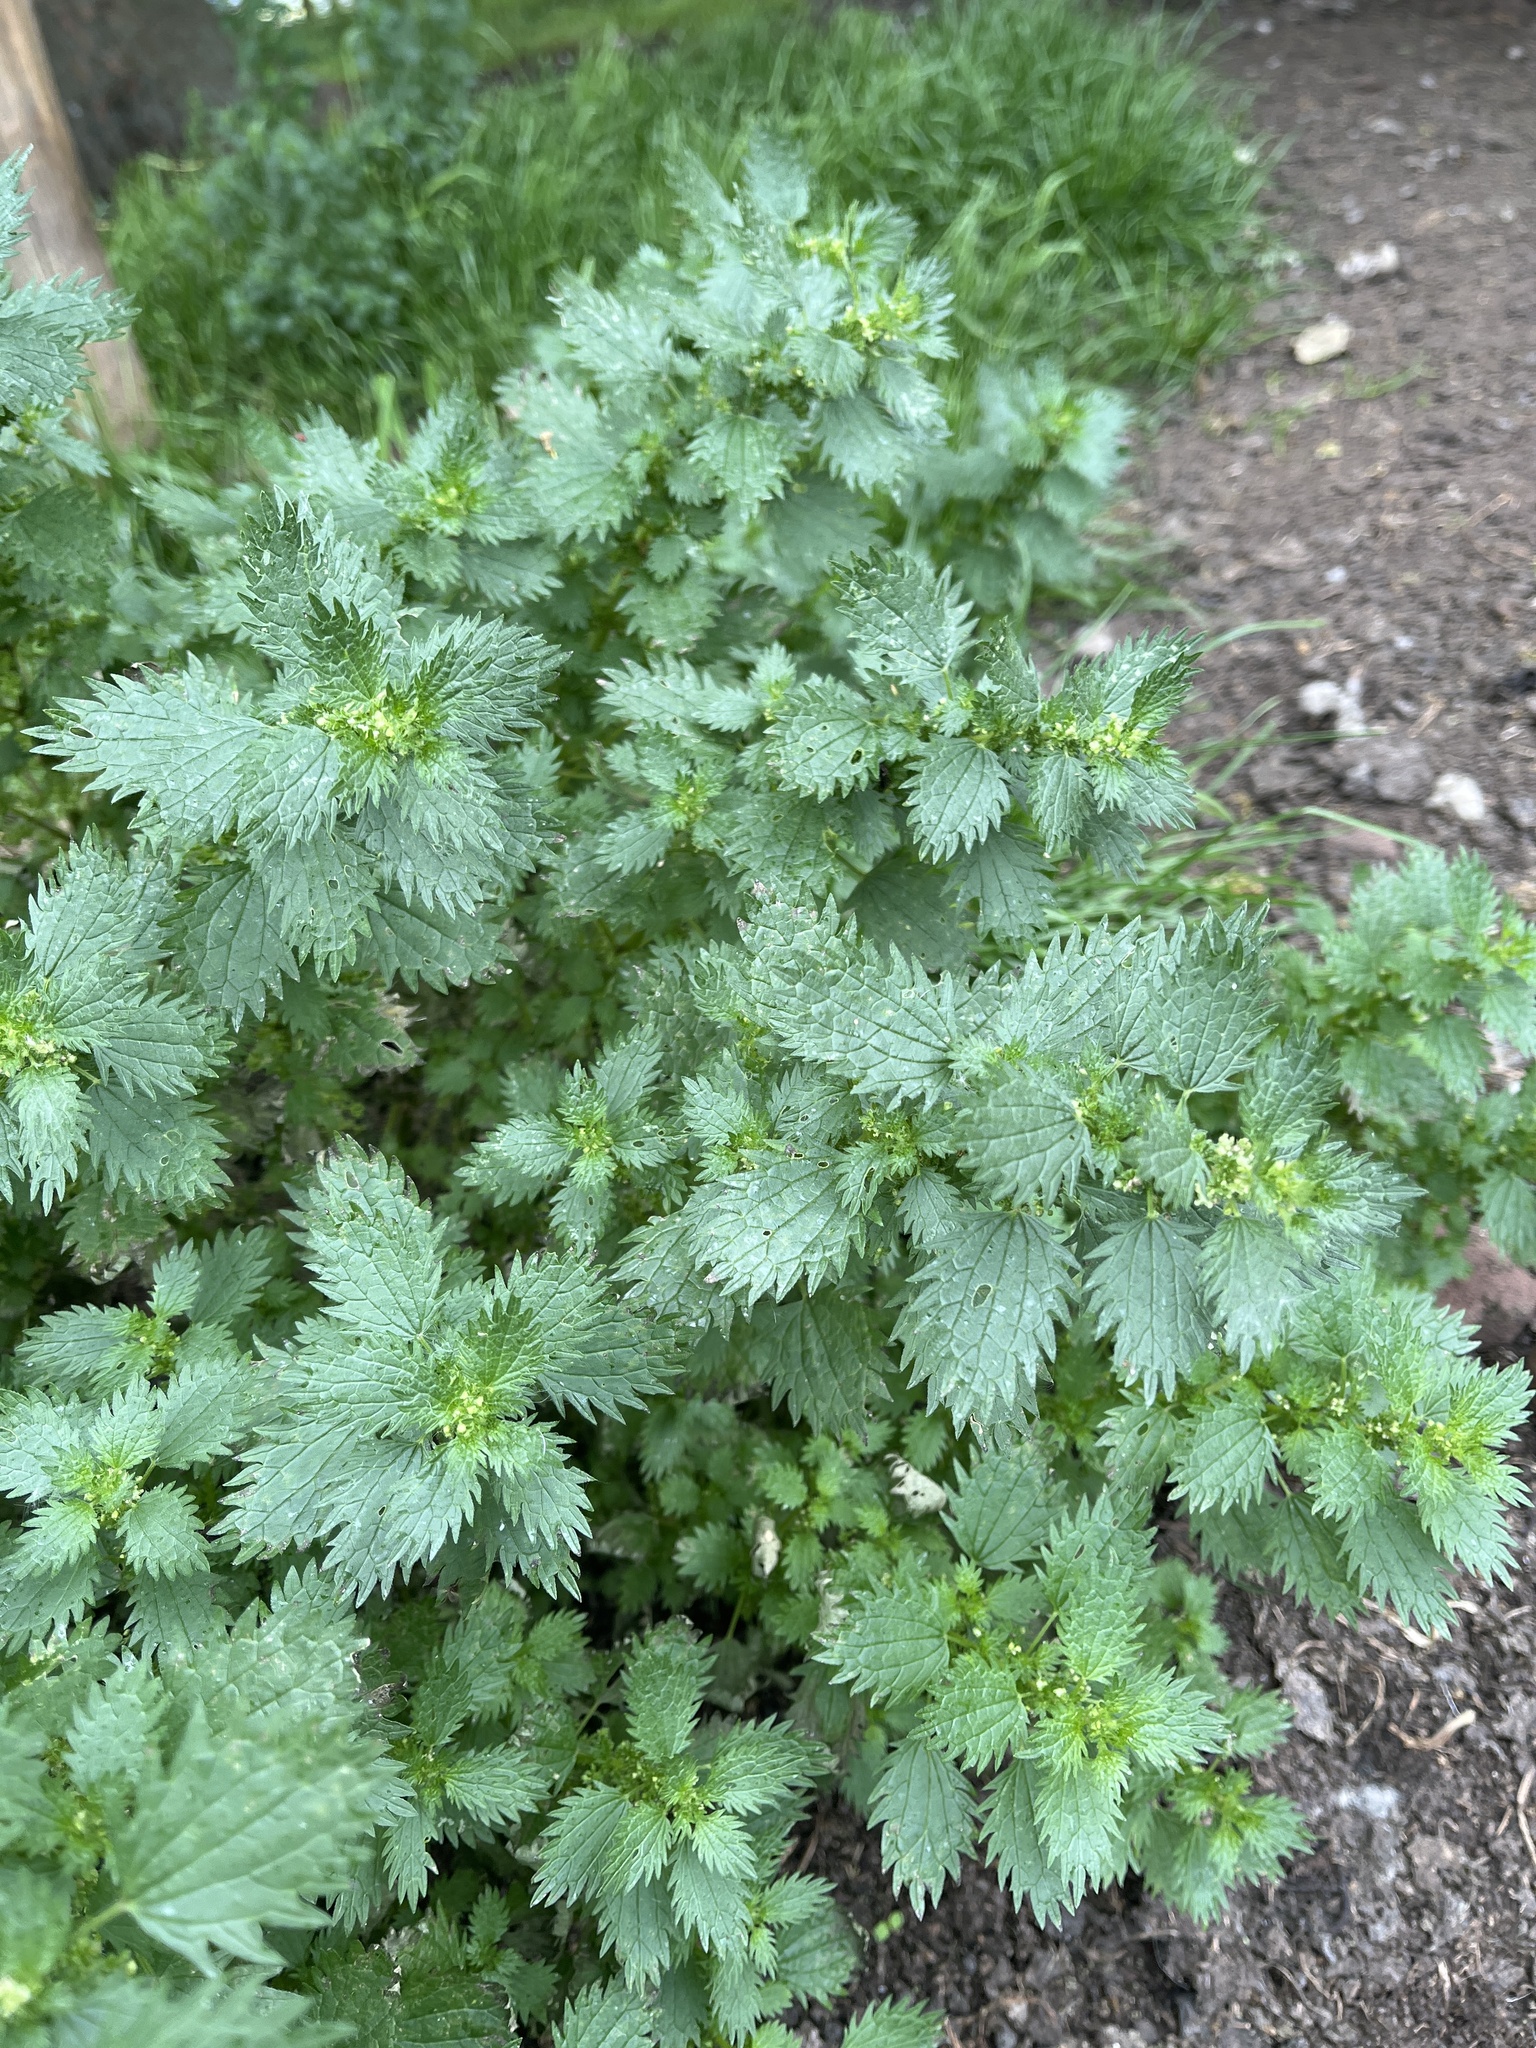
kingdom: Plantae
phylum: Tracheophyta
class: Magnoliopsida
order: Rosales
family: Urticaceae
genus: Urtica
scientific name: Urtica urens
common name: Dwarf nettle
